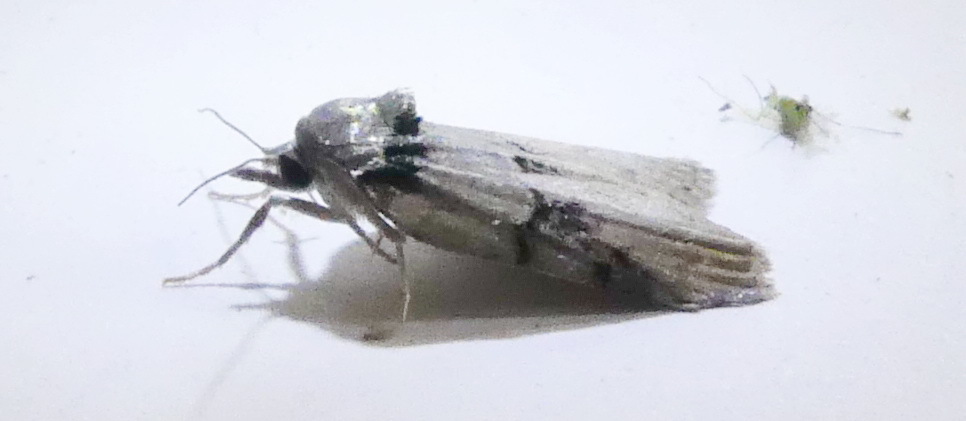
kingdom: Animalia
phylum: Arthropoda
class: Insecta
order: Lepidoptera
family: Nolidae
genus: Nycteola
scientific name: Nycteola cinereana
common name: Grey midget moth
